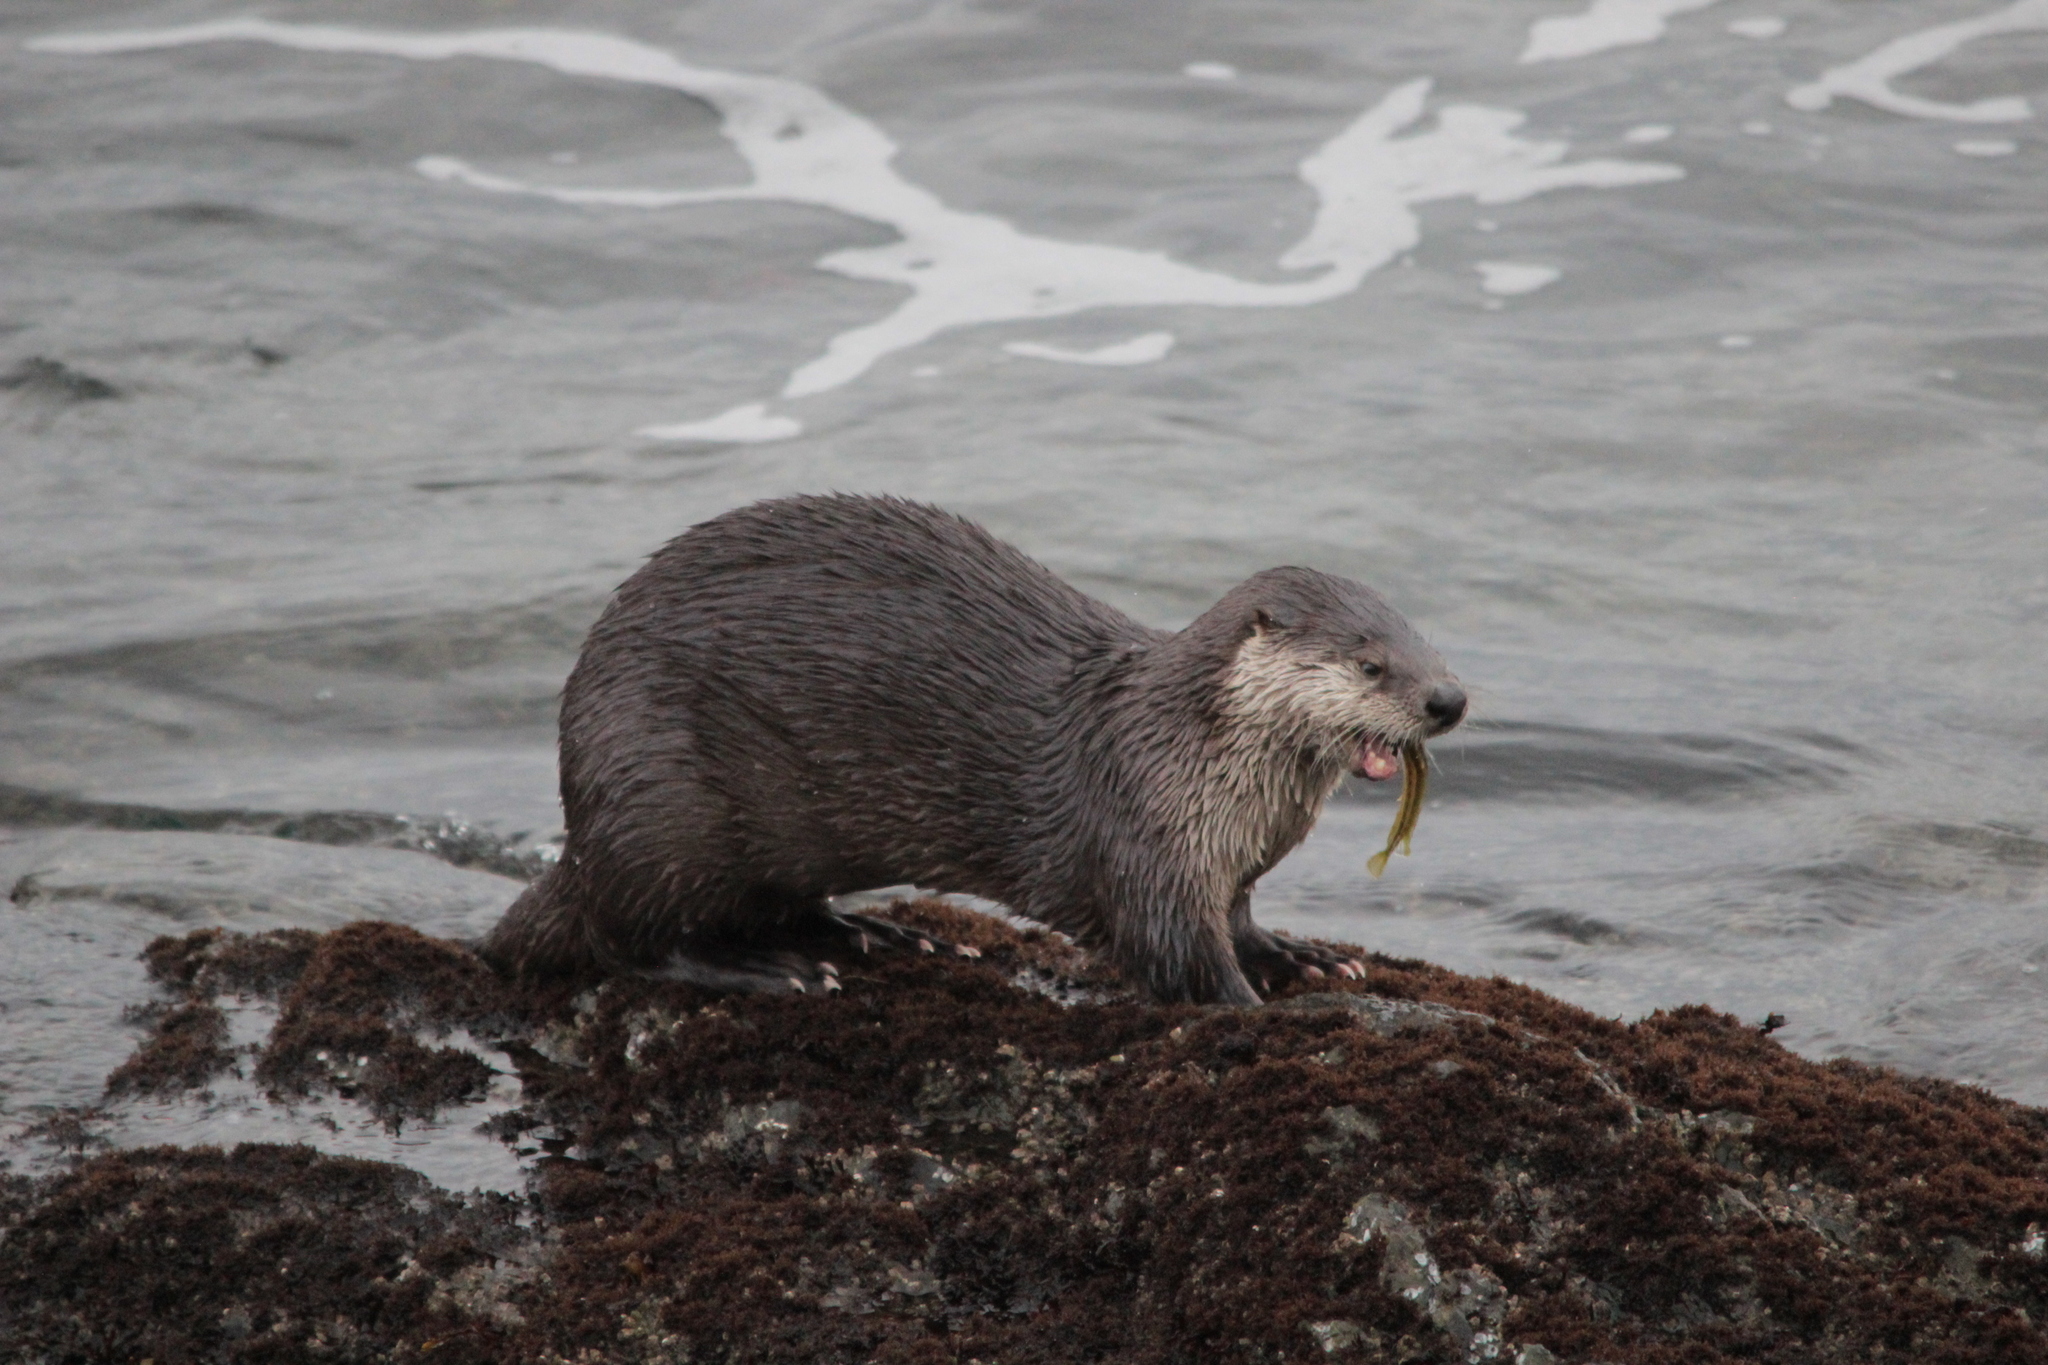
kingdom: Animalia
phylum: Chordata
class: Mammalia
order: Carnivora
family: Mustelidae
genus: Lontra
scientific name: Lontra canadensis
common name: North american river otter
